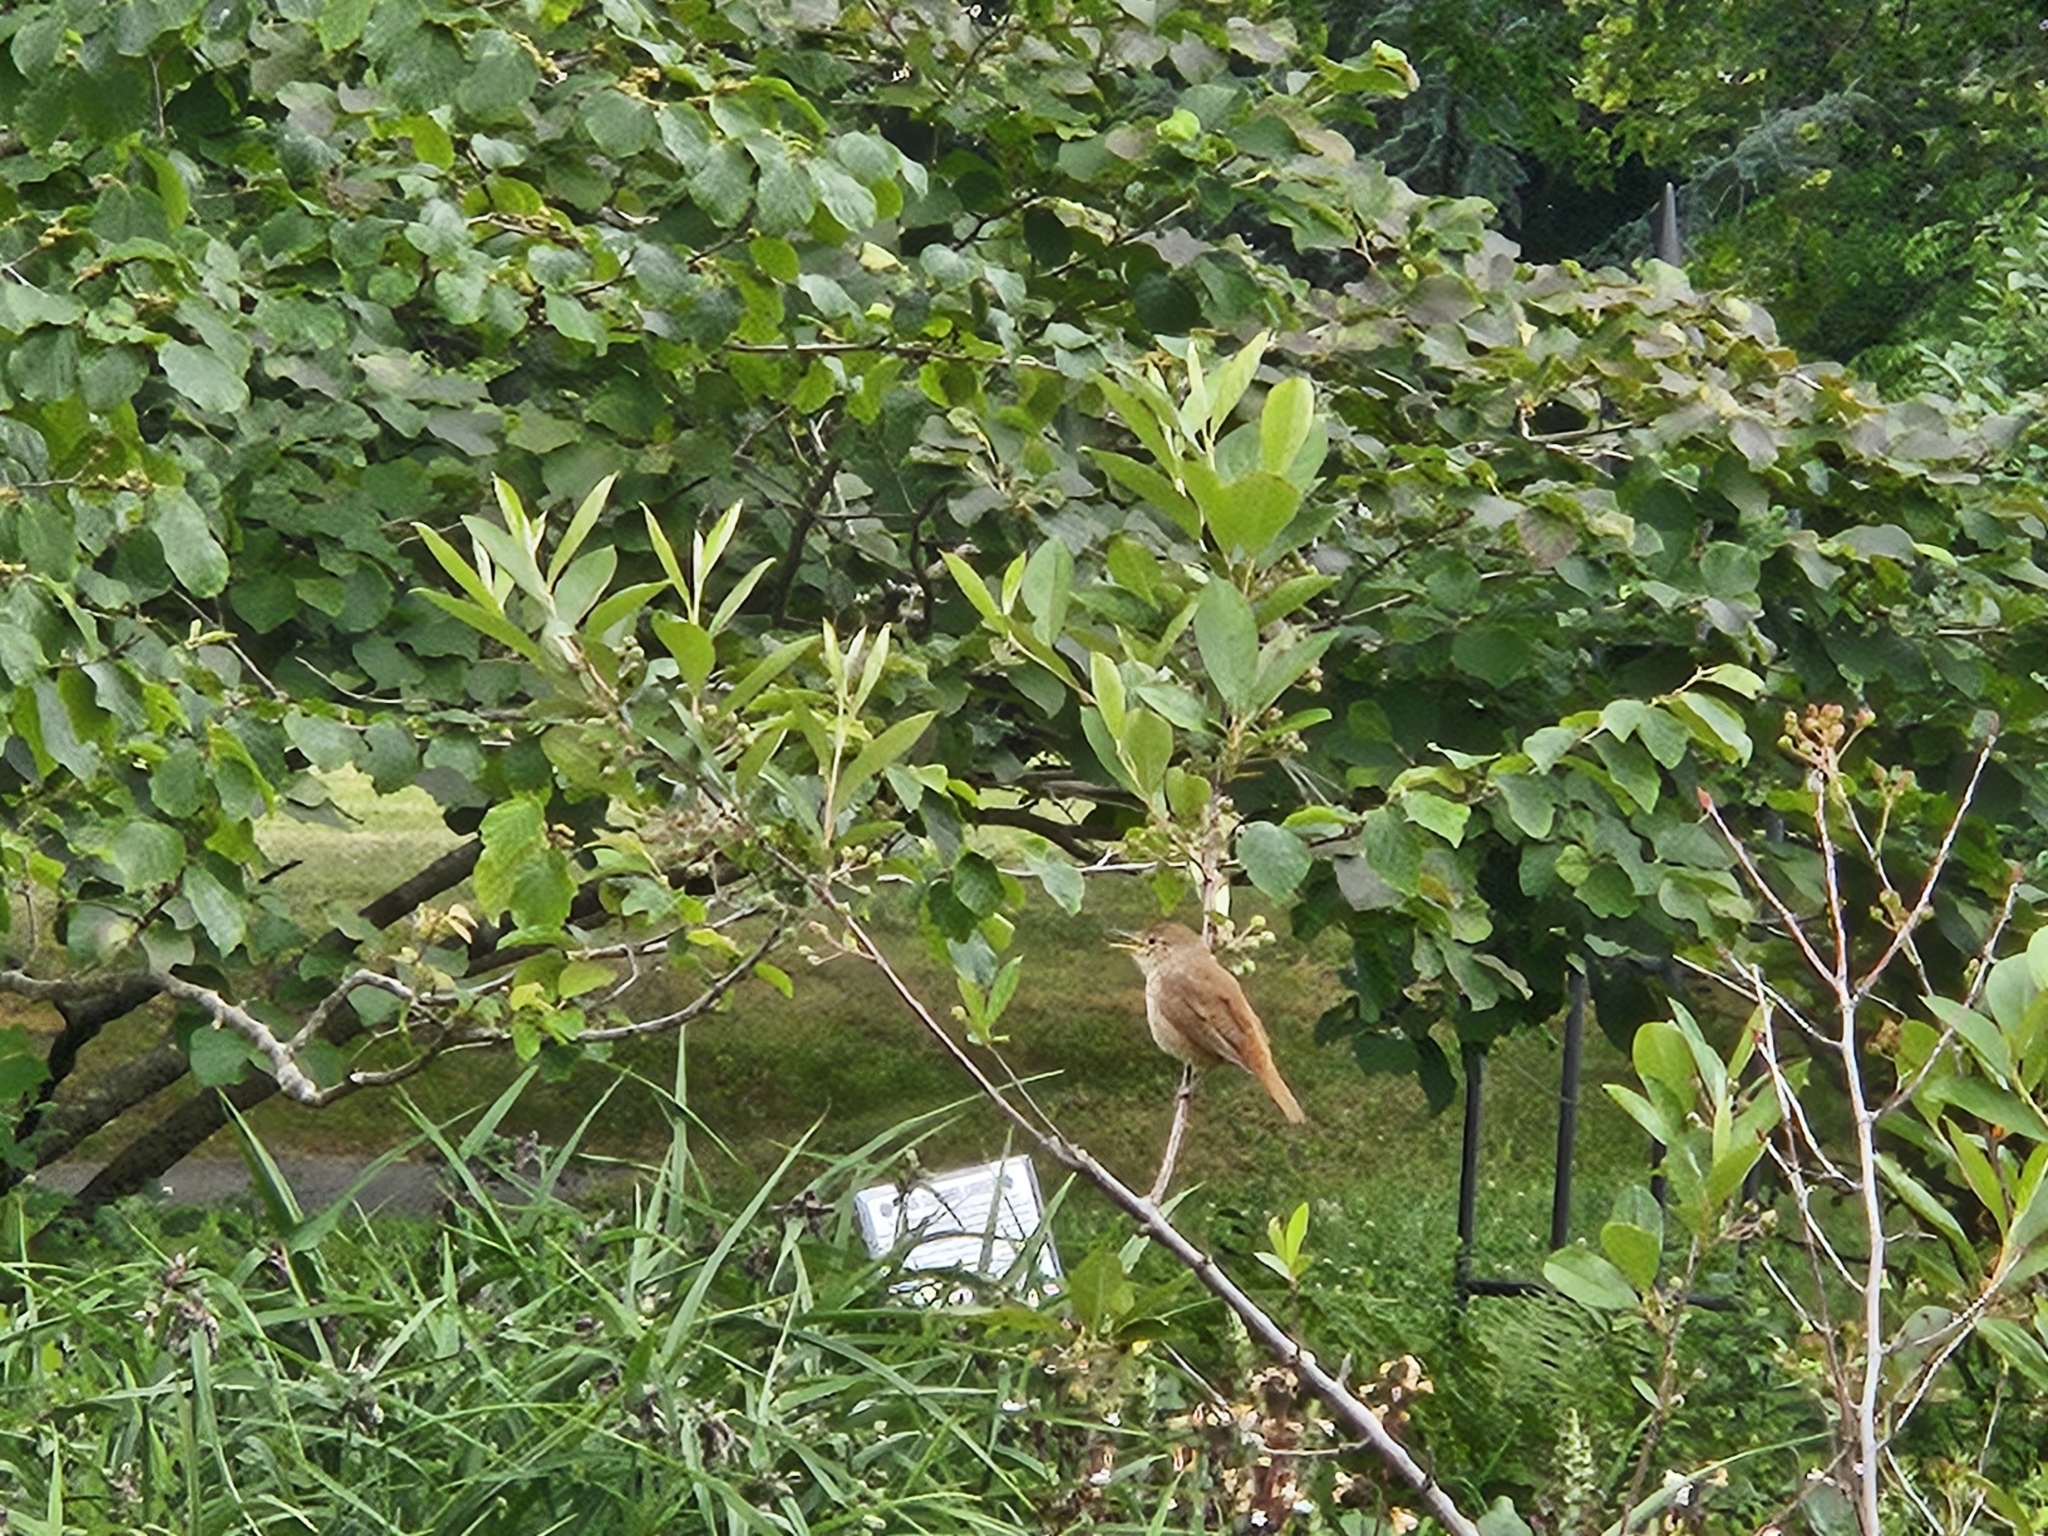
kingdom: Animalia
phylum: Chordata
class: Aves
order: Passeriformes
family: Troglodytidae
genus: Troglodytes
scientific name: Troglodytes aedon
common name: House wren
